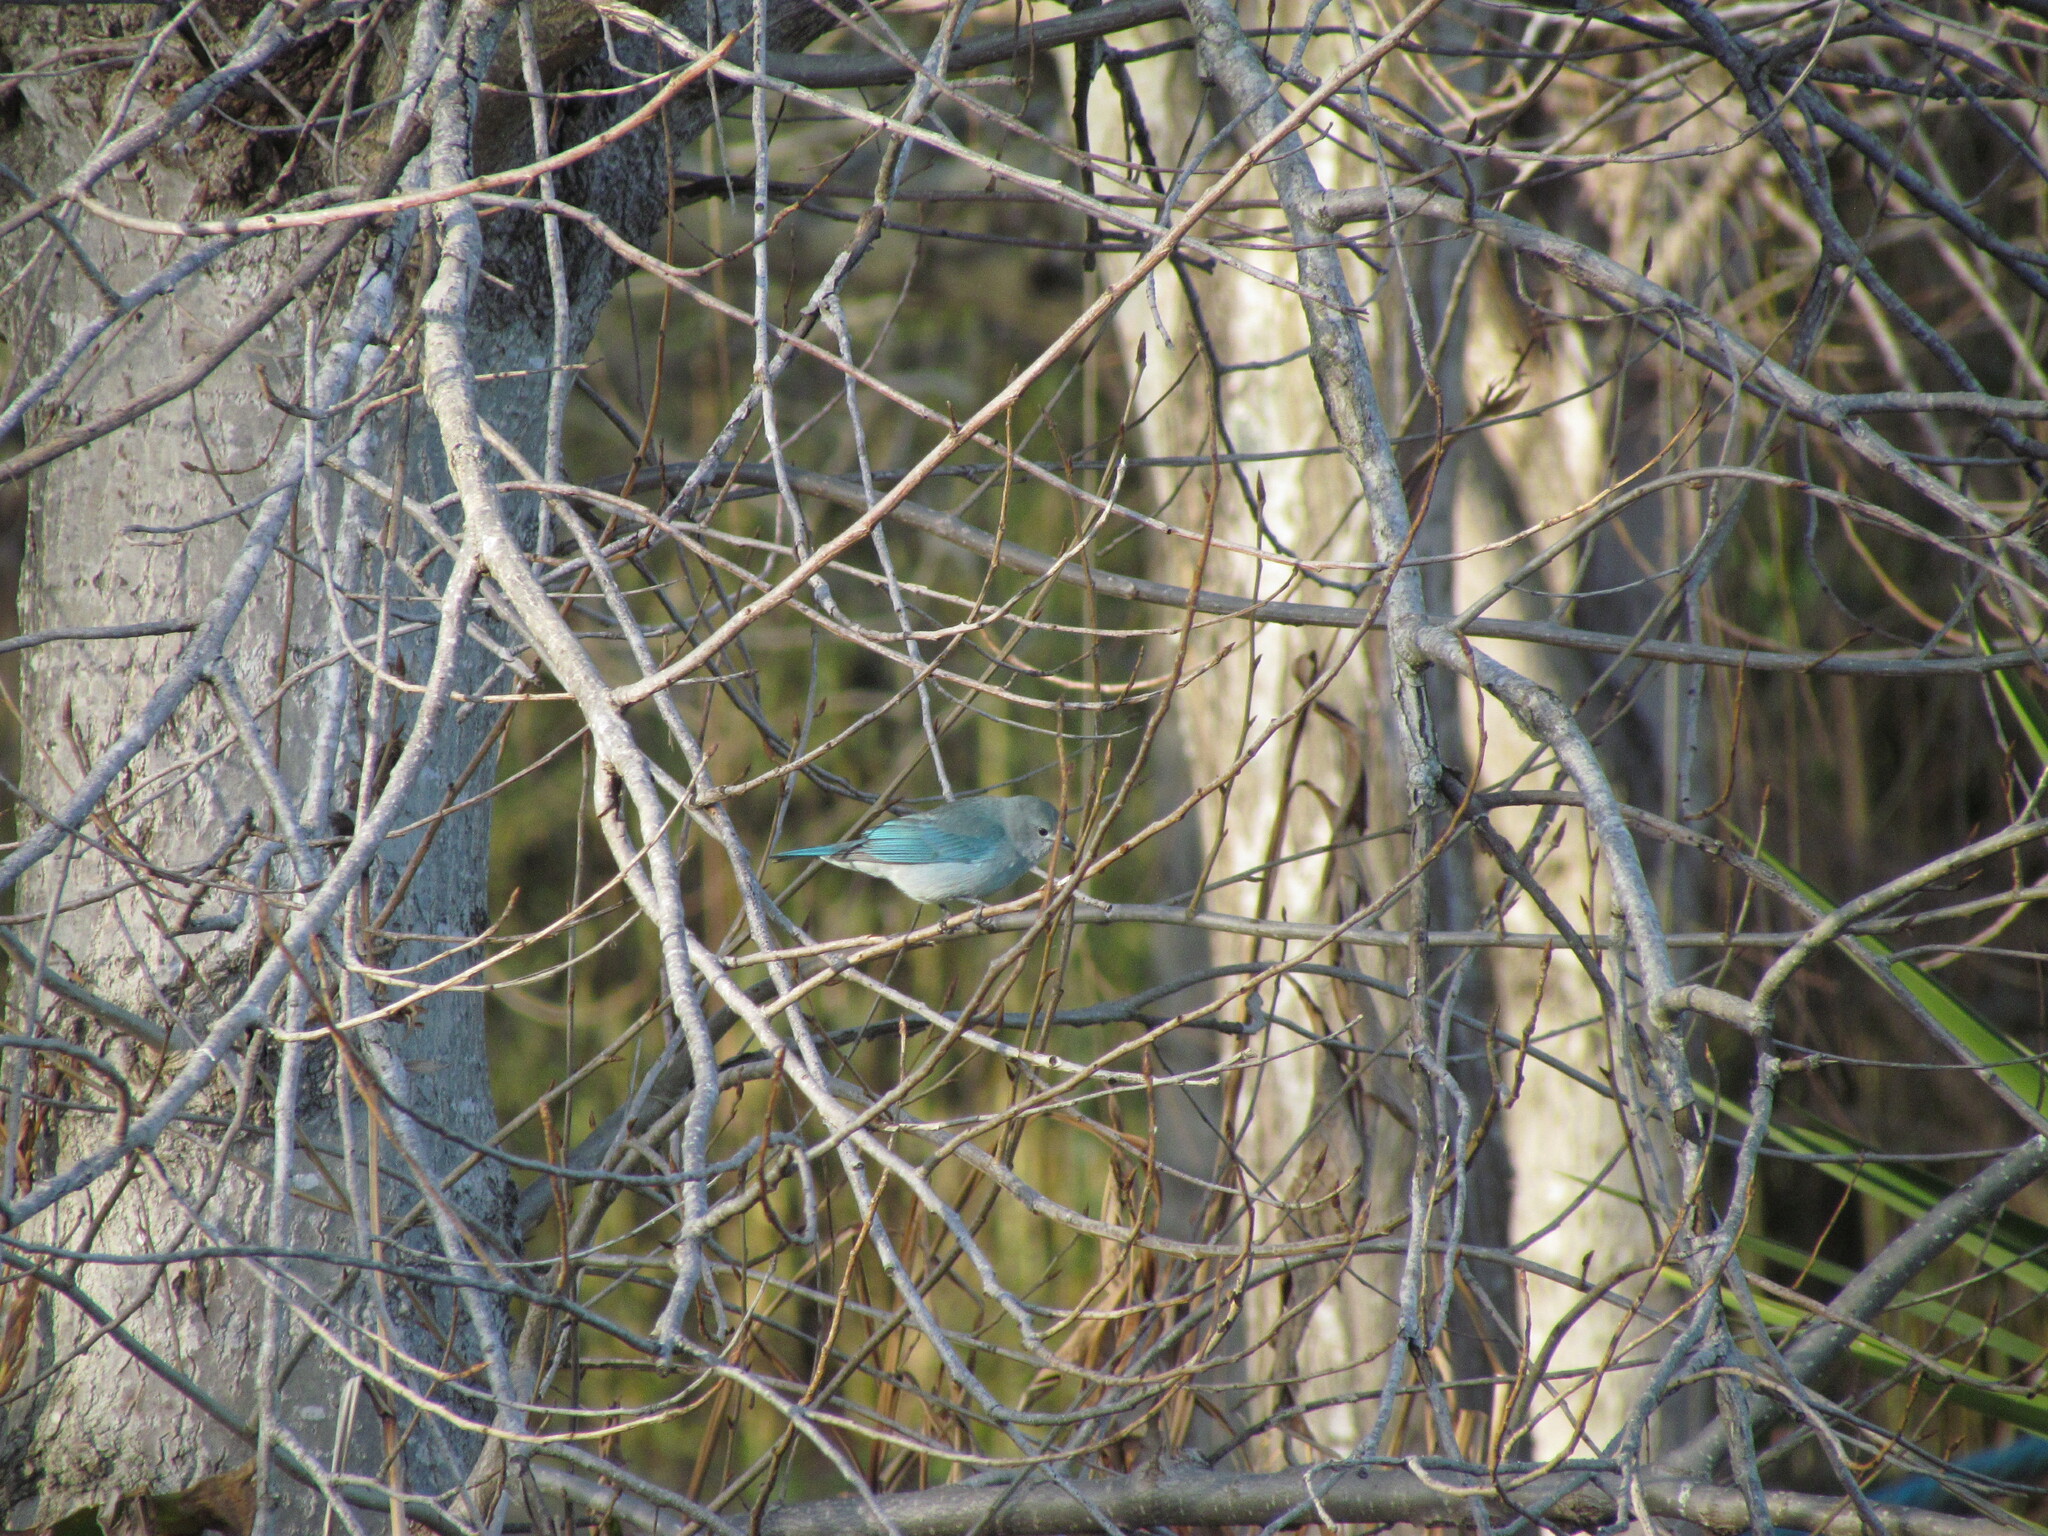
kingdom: Animalia
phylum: Chordata
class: Aves
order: Passeriformes
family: Thraupidae
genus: Thraupis
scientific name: Thraupis sayaca
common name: Sayaca tanager
